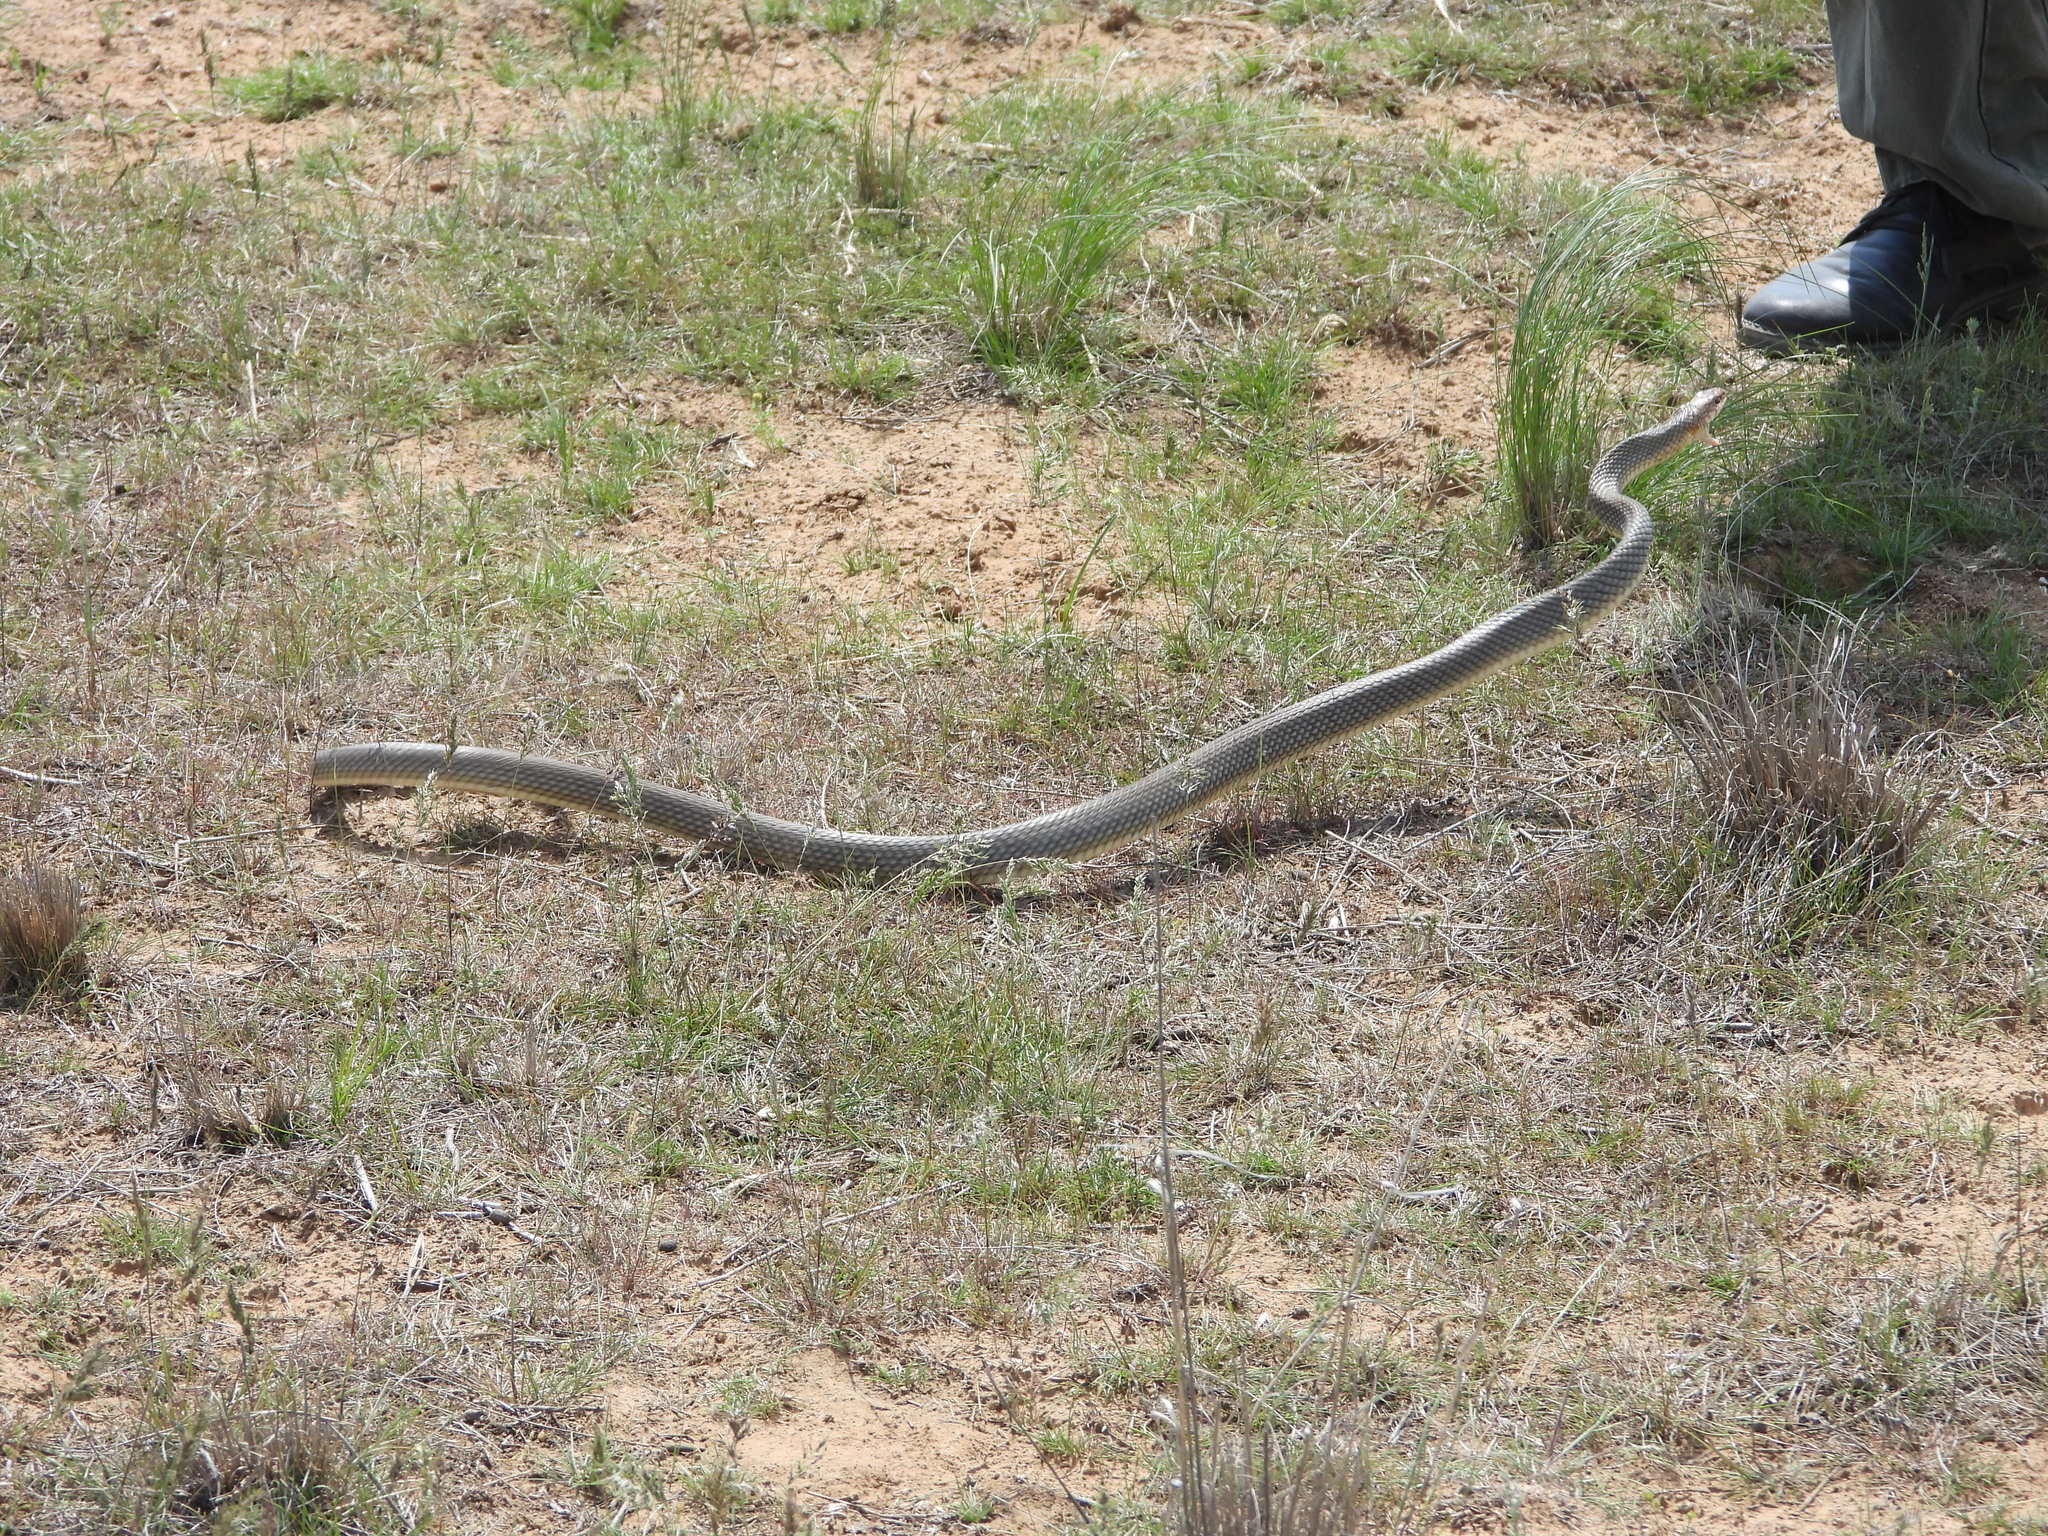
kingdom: Animalia
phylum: Chordata
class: Squamata
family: Colubridae
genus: Dolichophis
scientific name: Dolichophis caspius
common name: Large whip snake
